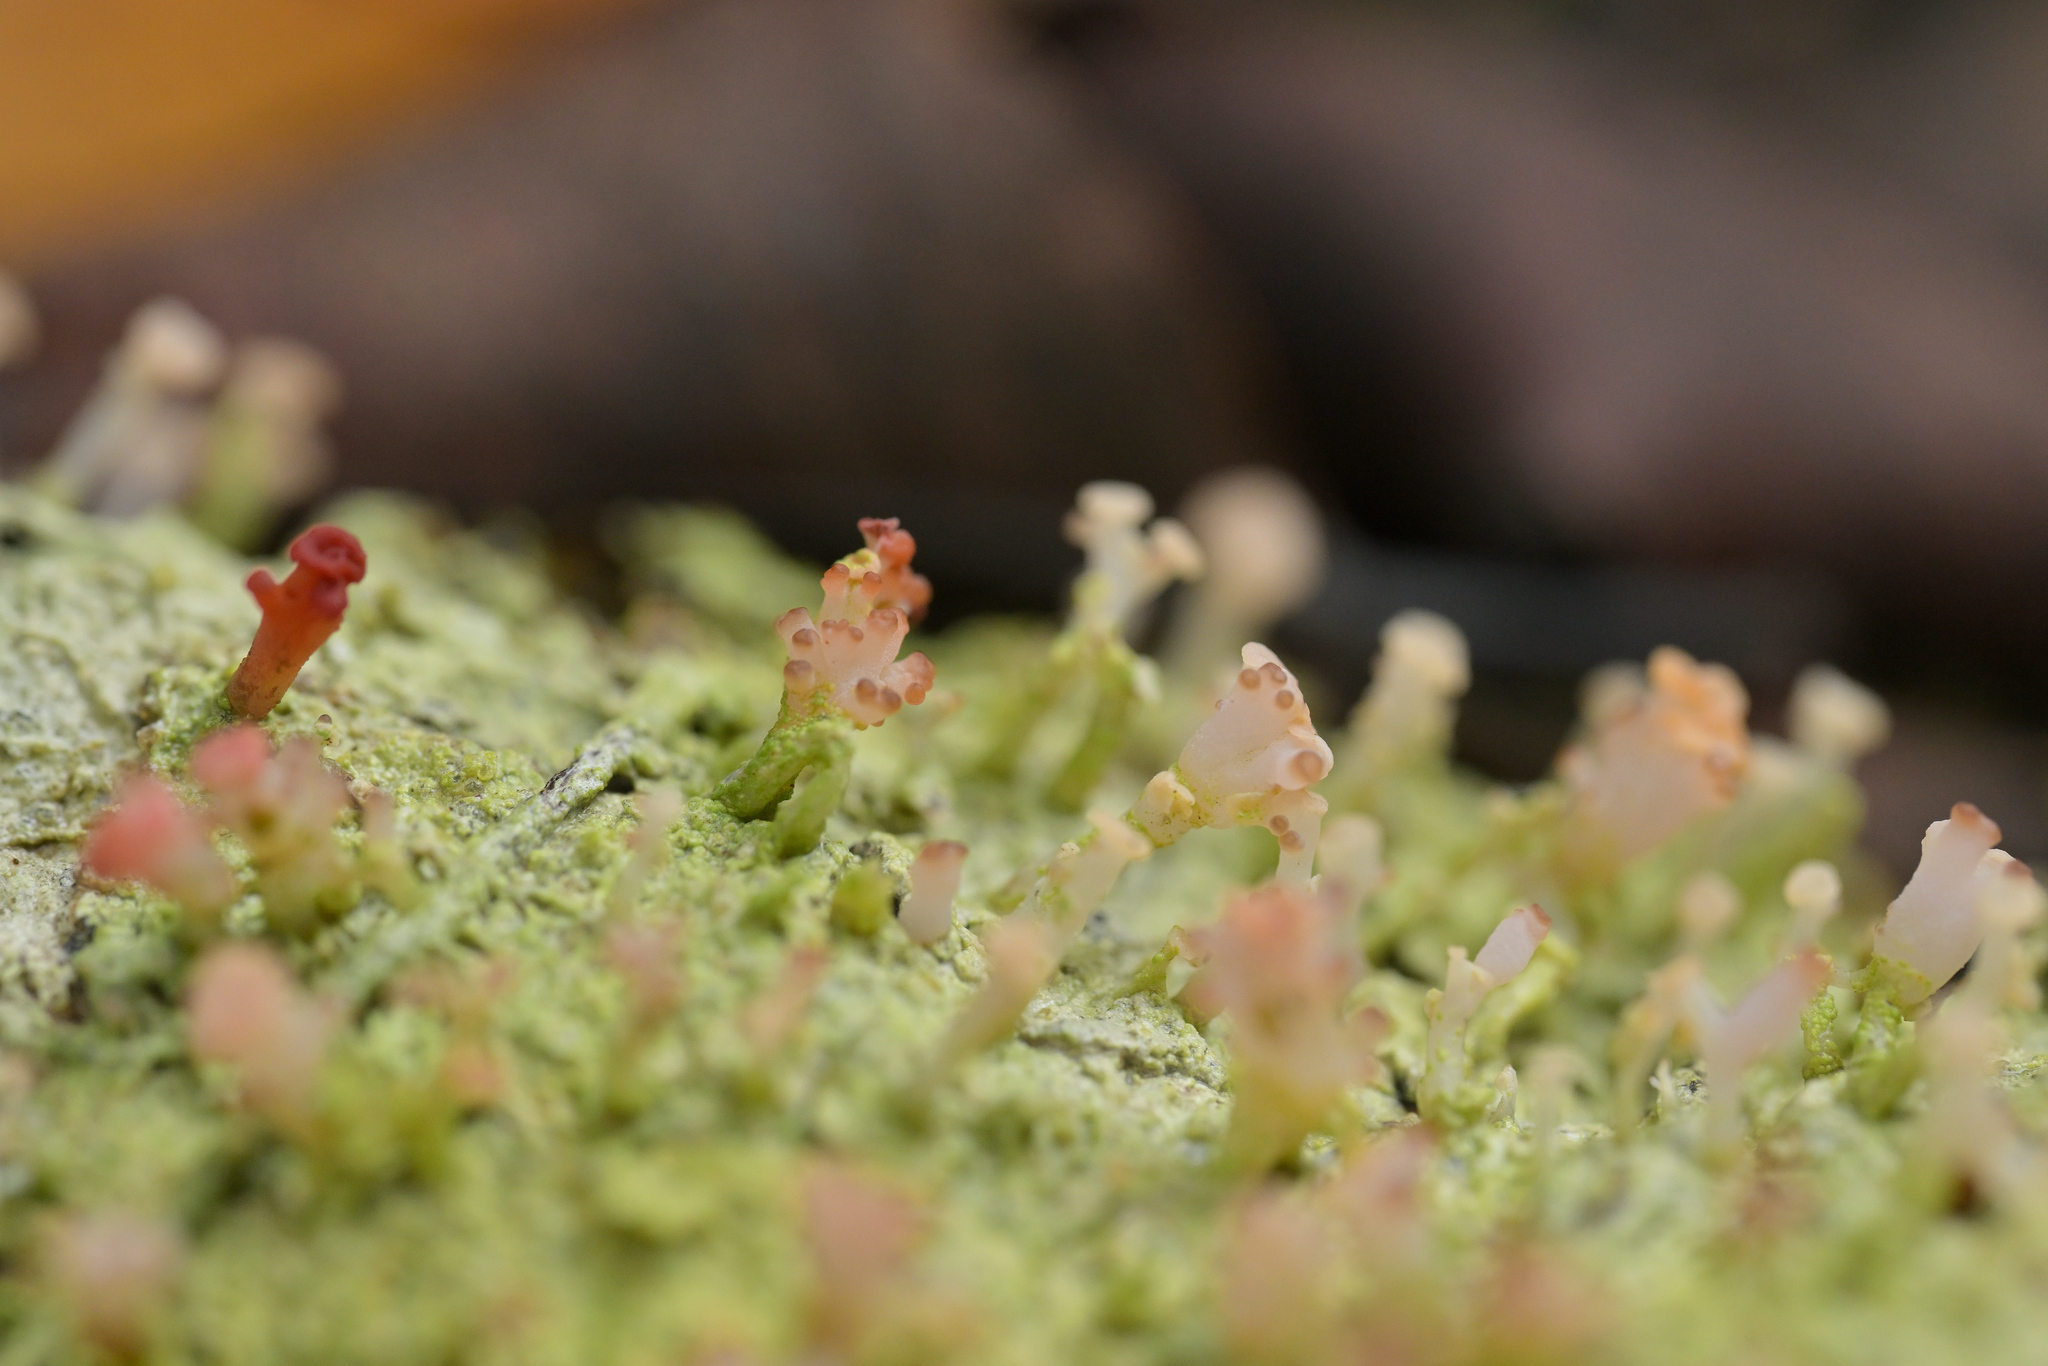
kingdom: Fungi
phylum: Ascomycota
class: Lecanoromycetes
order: Baeomycetales
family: Baeomycetaceae
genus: Baeomyces
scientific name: Baeomyces heteromorphus
